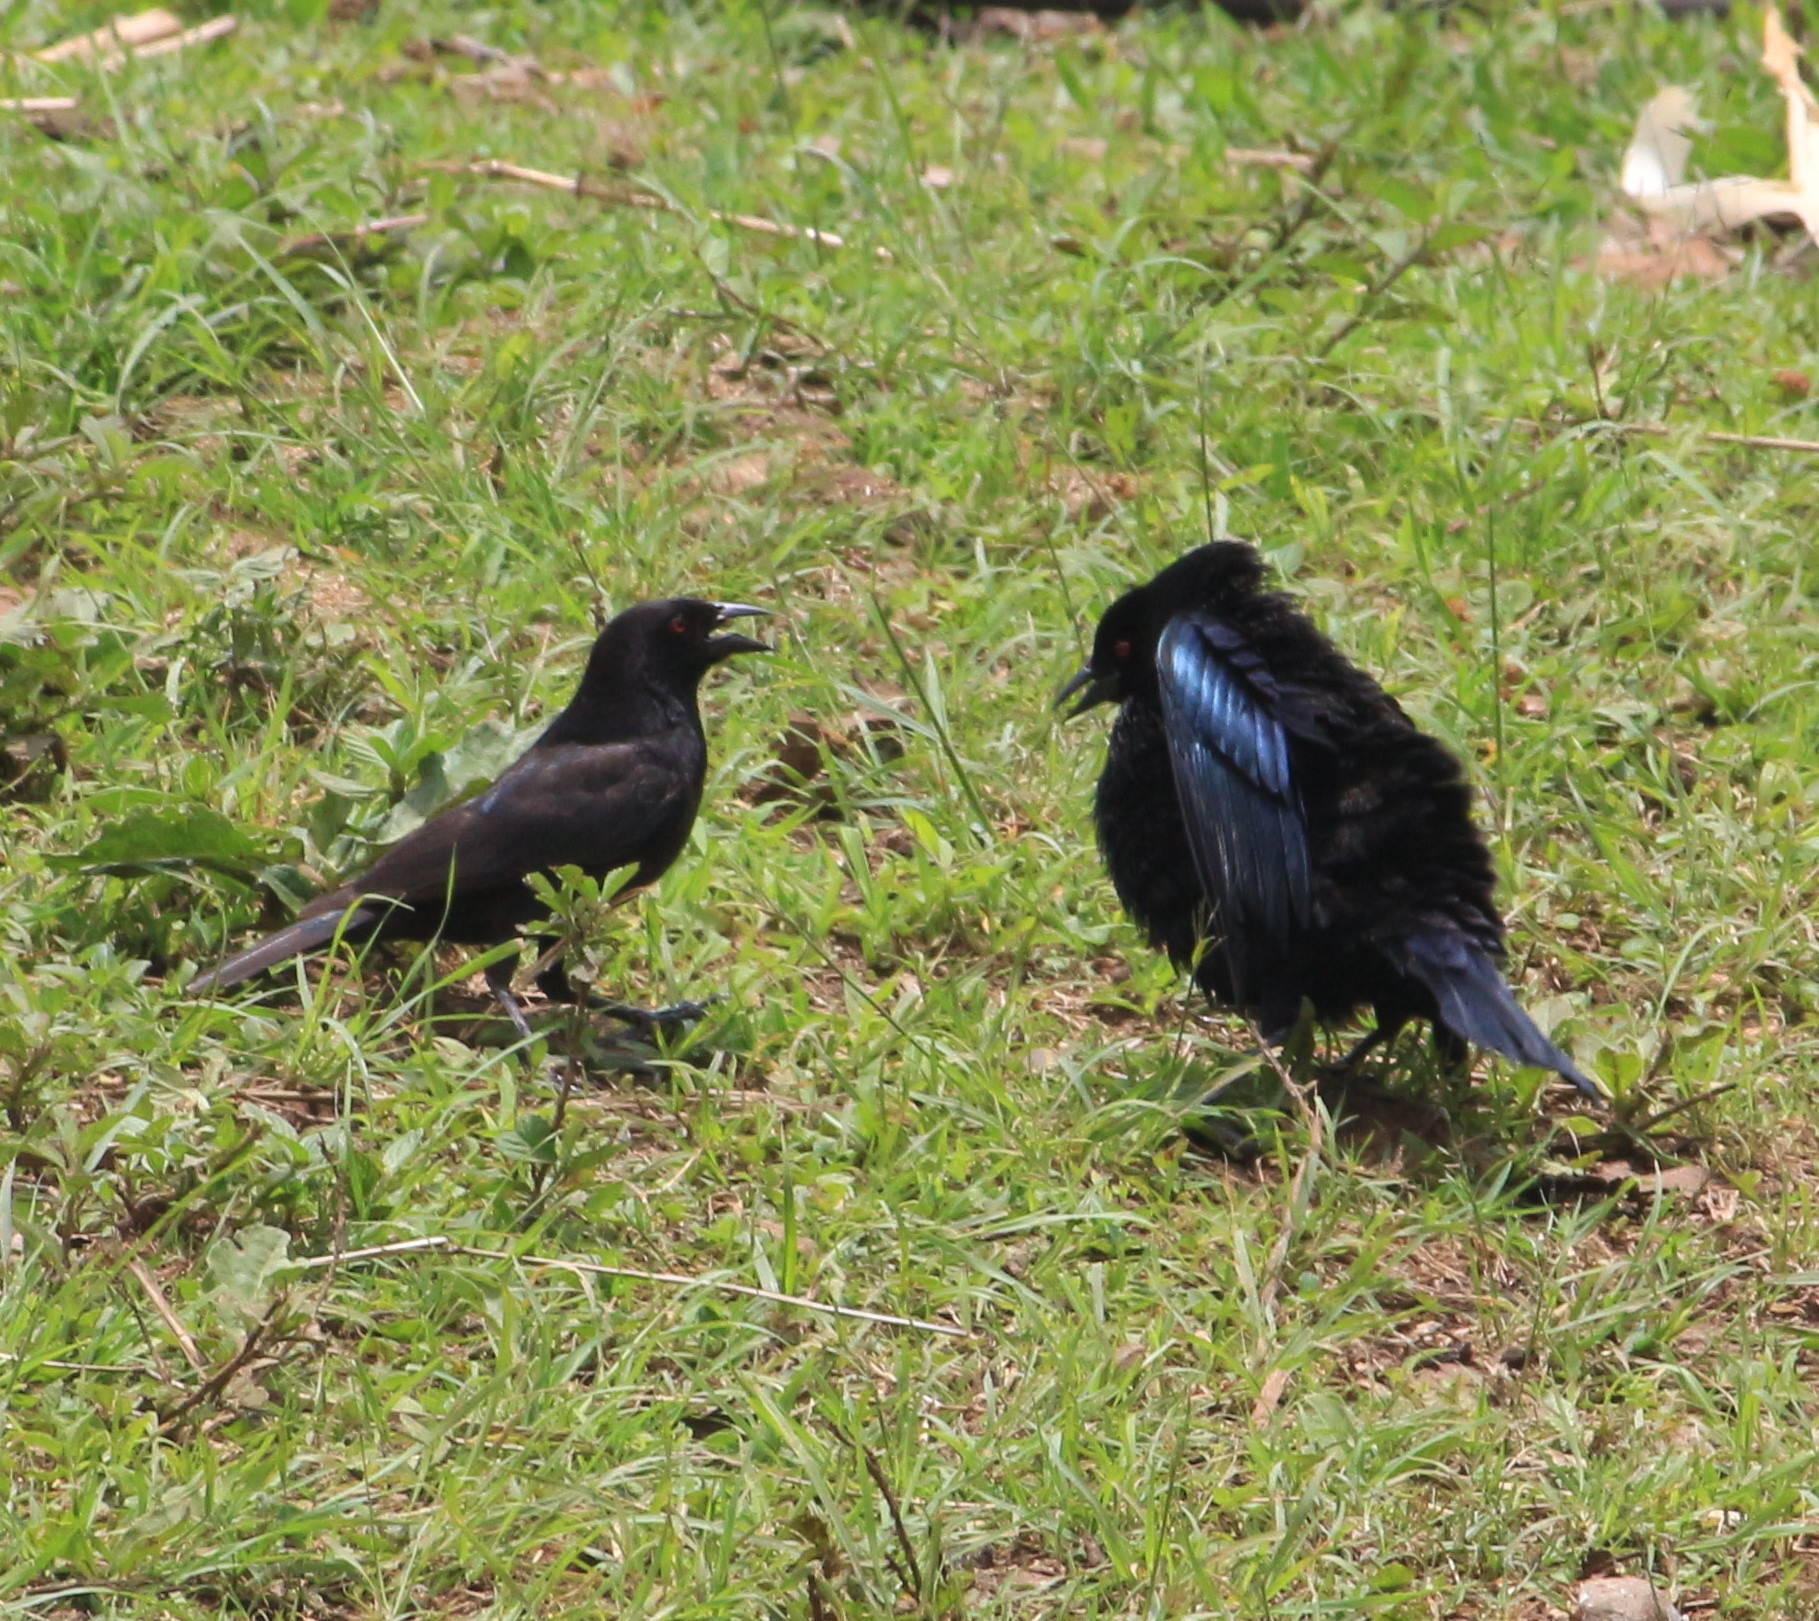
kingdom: Animalia
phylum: Chordata
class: Aves
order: Passeriformes
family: Icteridae
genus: Molothrus
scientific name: Molothrus aeneus
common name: Bronzed cowbird
